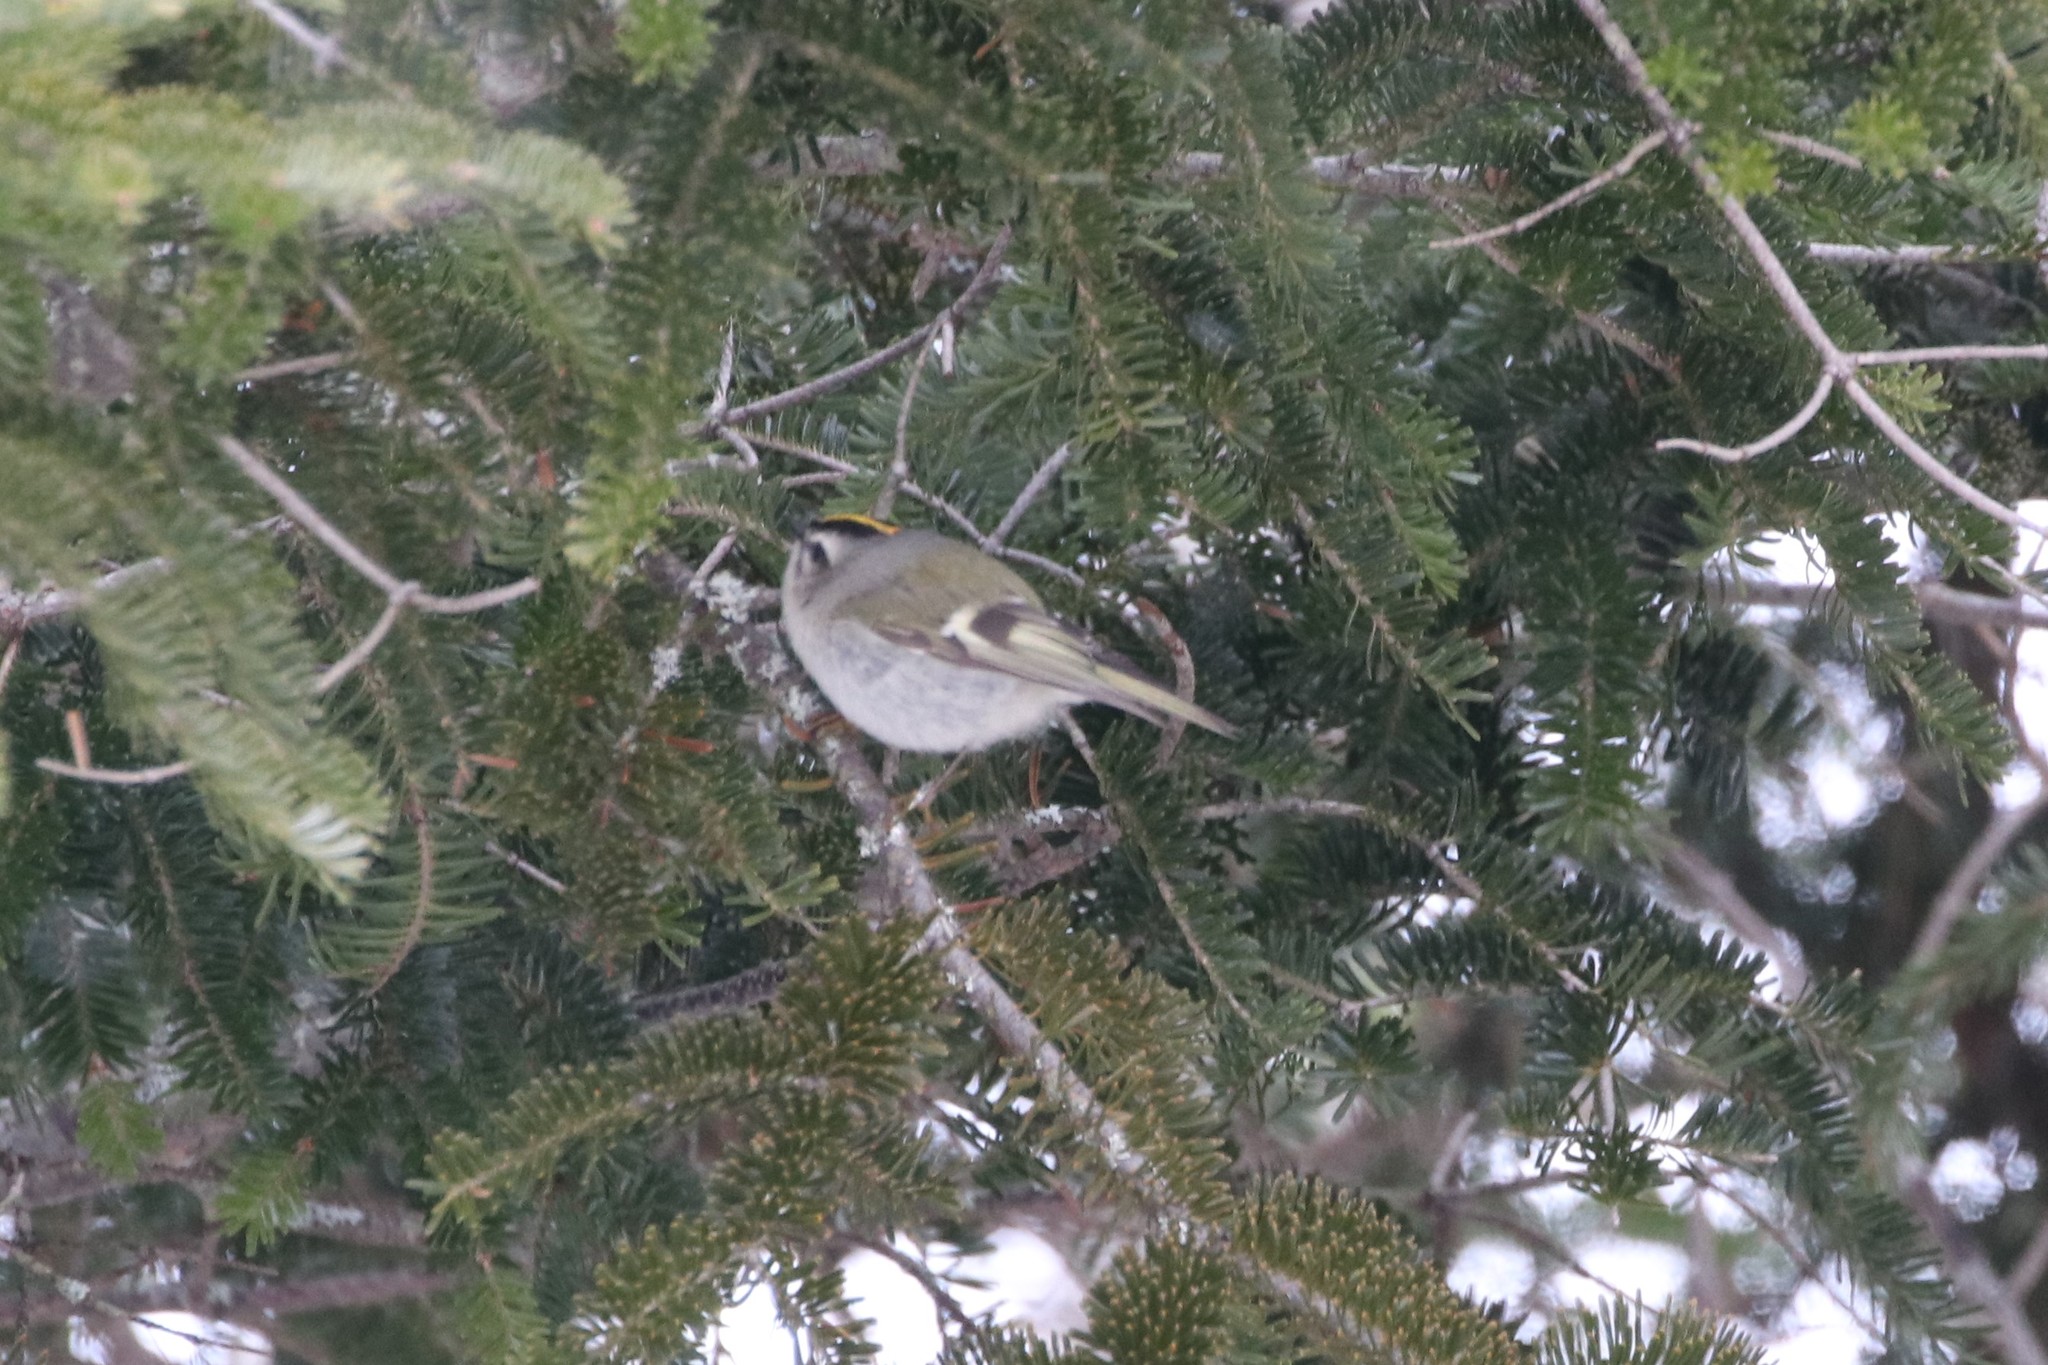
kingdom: Animalia
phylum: Chordata
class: Aves
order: Passeriformes
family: Regulidae
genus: Regulus
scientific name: Regulus satrapa
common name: Golden-crowned kinglet
